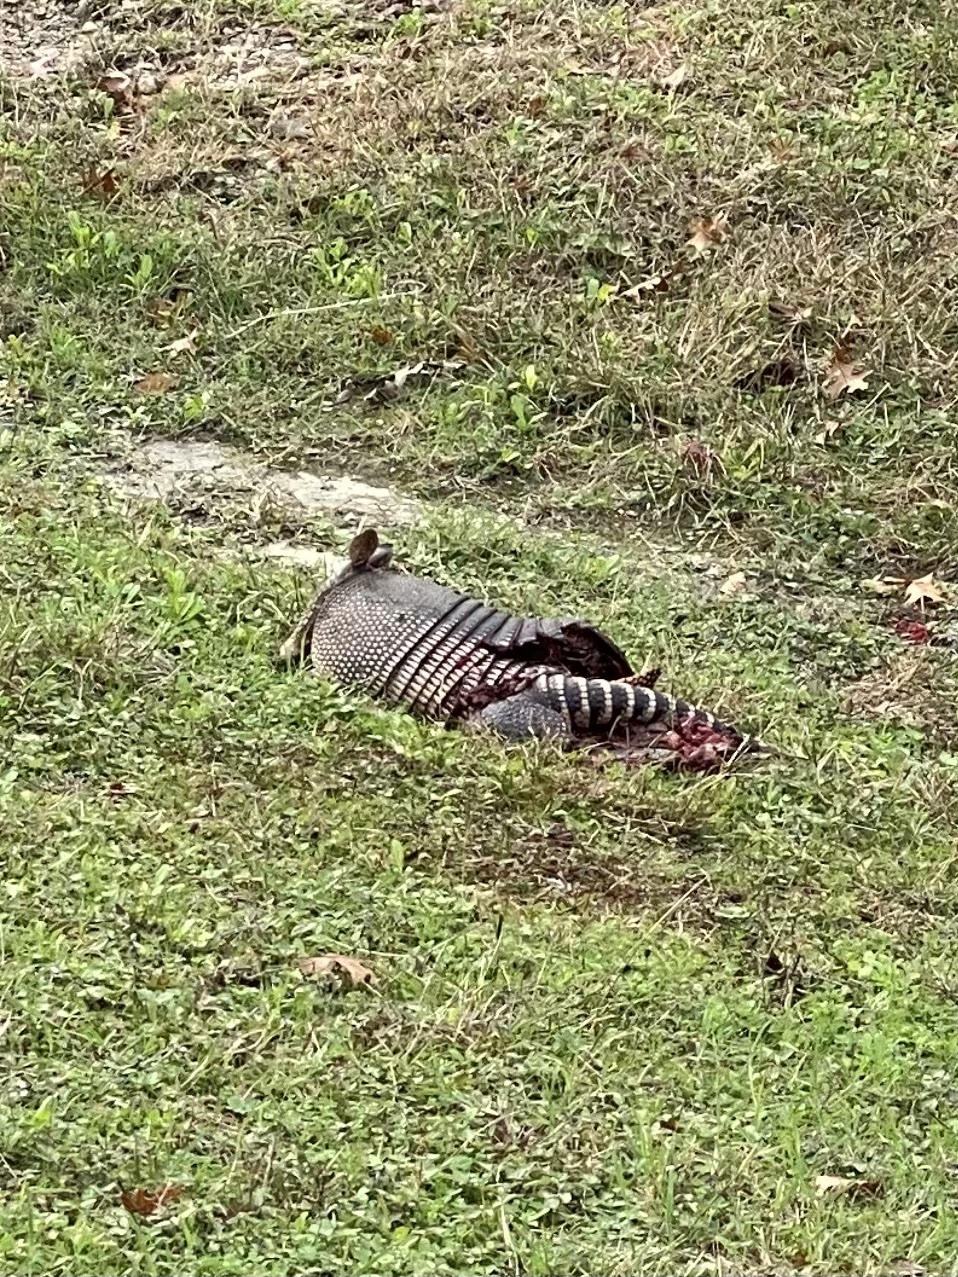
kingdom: Animalia
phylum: Chordata
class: Mammalia
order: Cingulata
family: Dasypodidae
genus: Dasypus
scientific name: Dasypus novemcinctus
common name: Nine-banded armadillo
